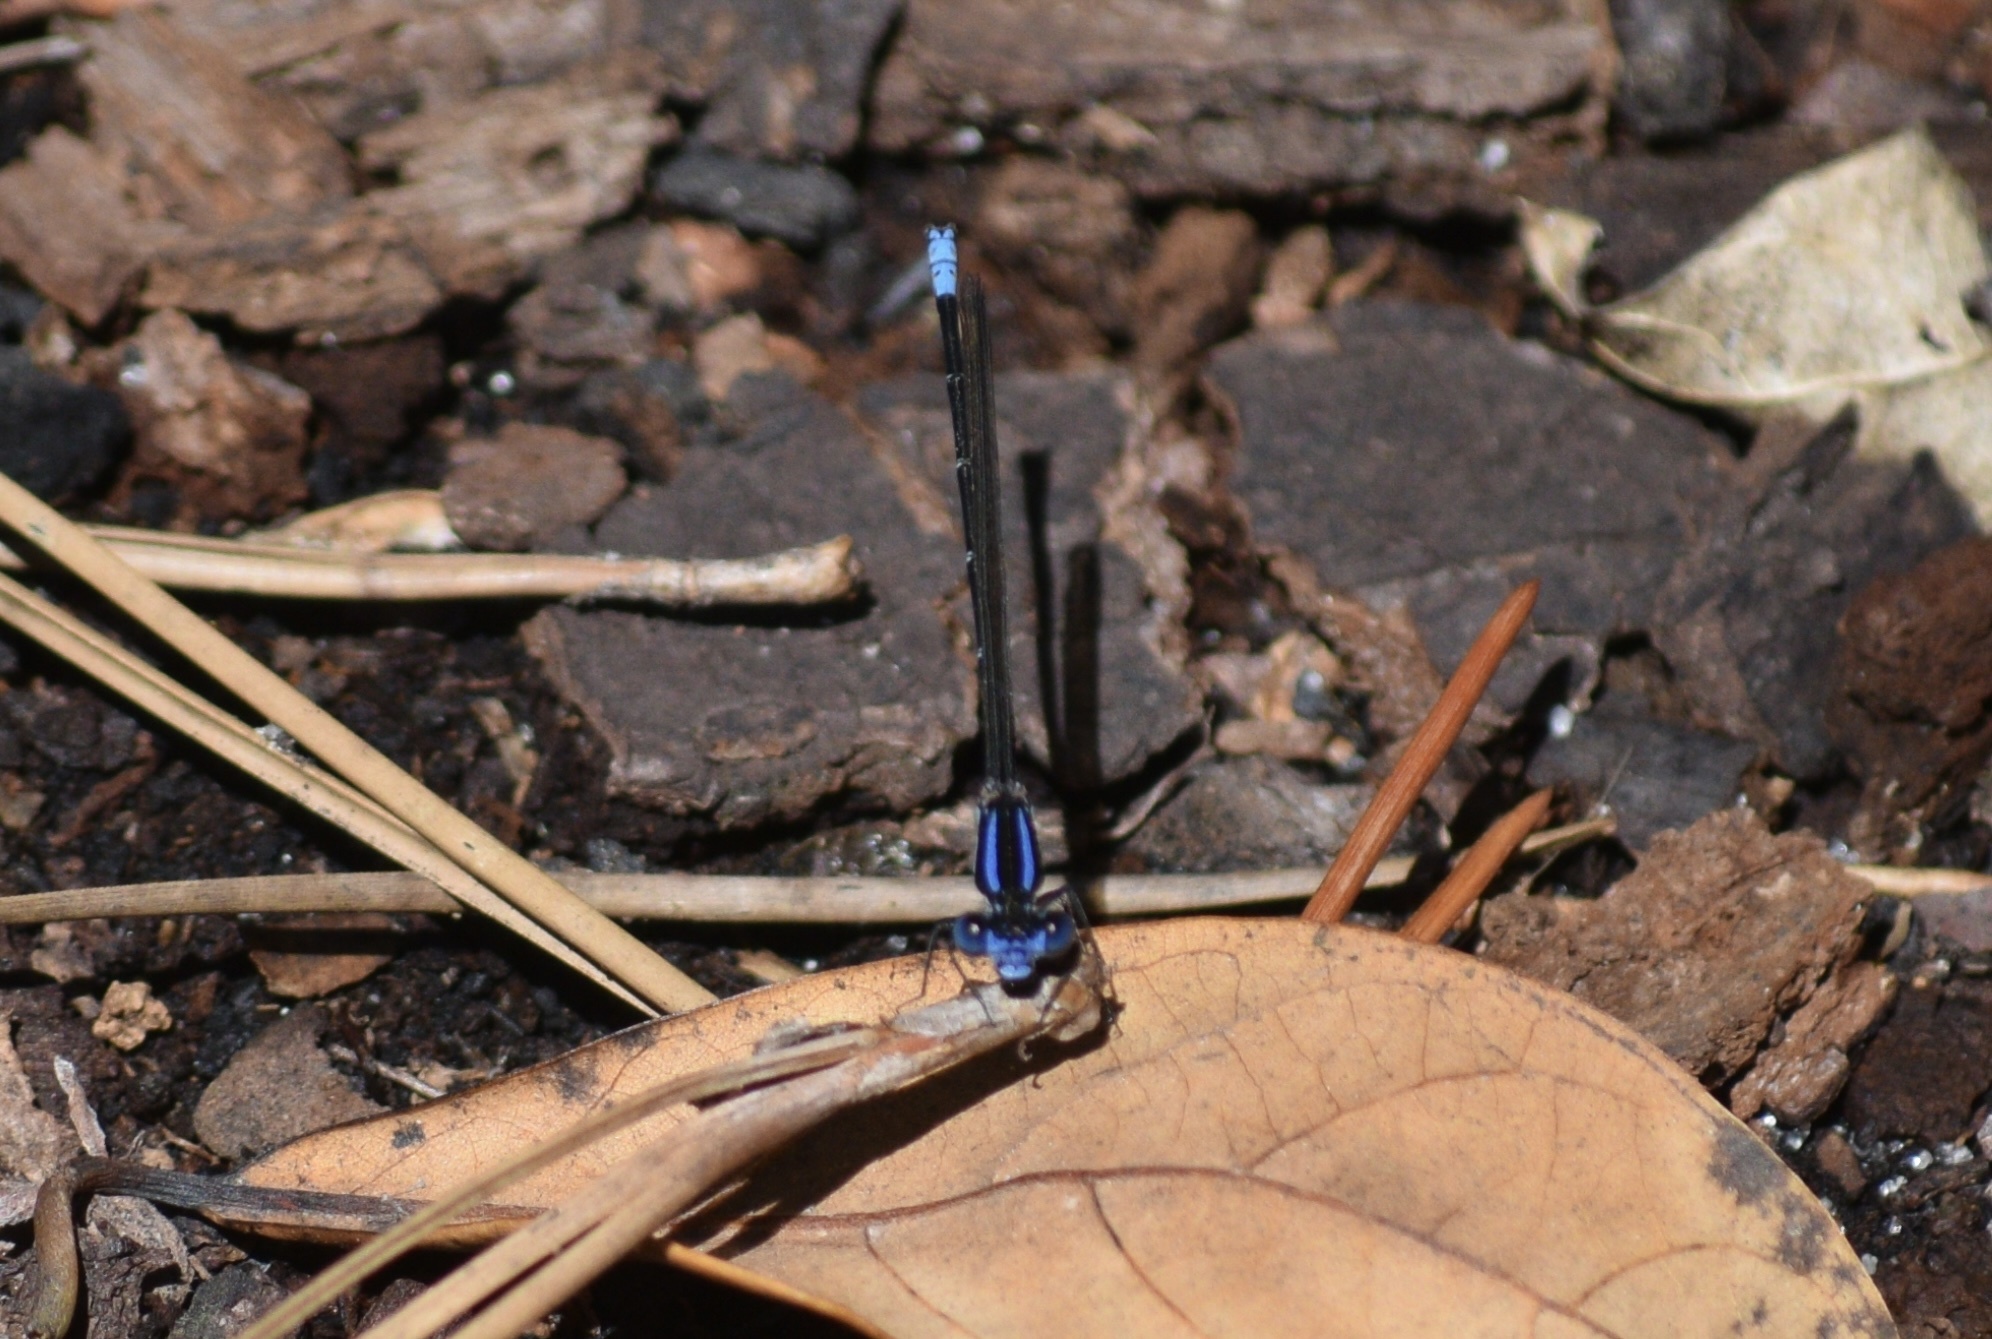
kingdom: Animalia
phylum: Arthropoda
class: Insecta
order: Odonata
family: Coenagrionidae
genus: Argia
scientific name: Argia sedula
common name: Blue-ringed dancer
